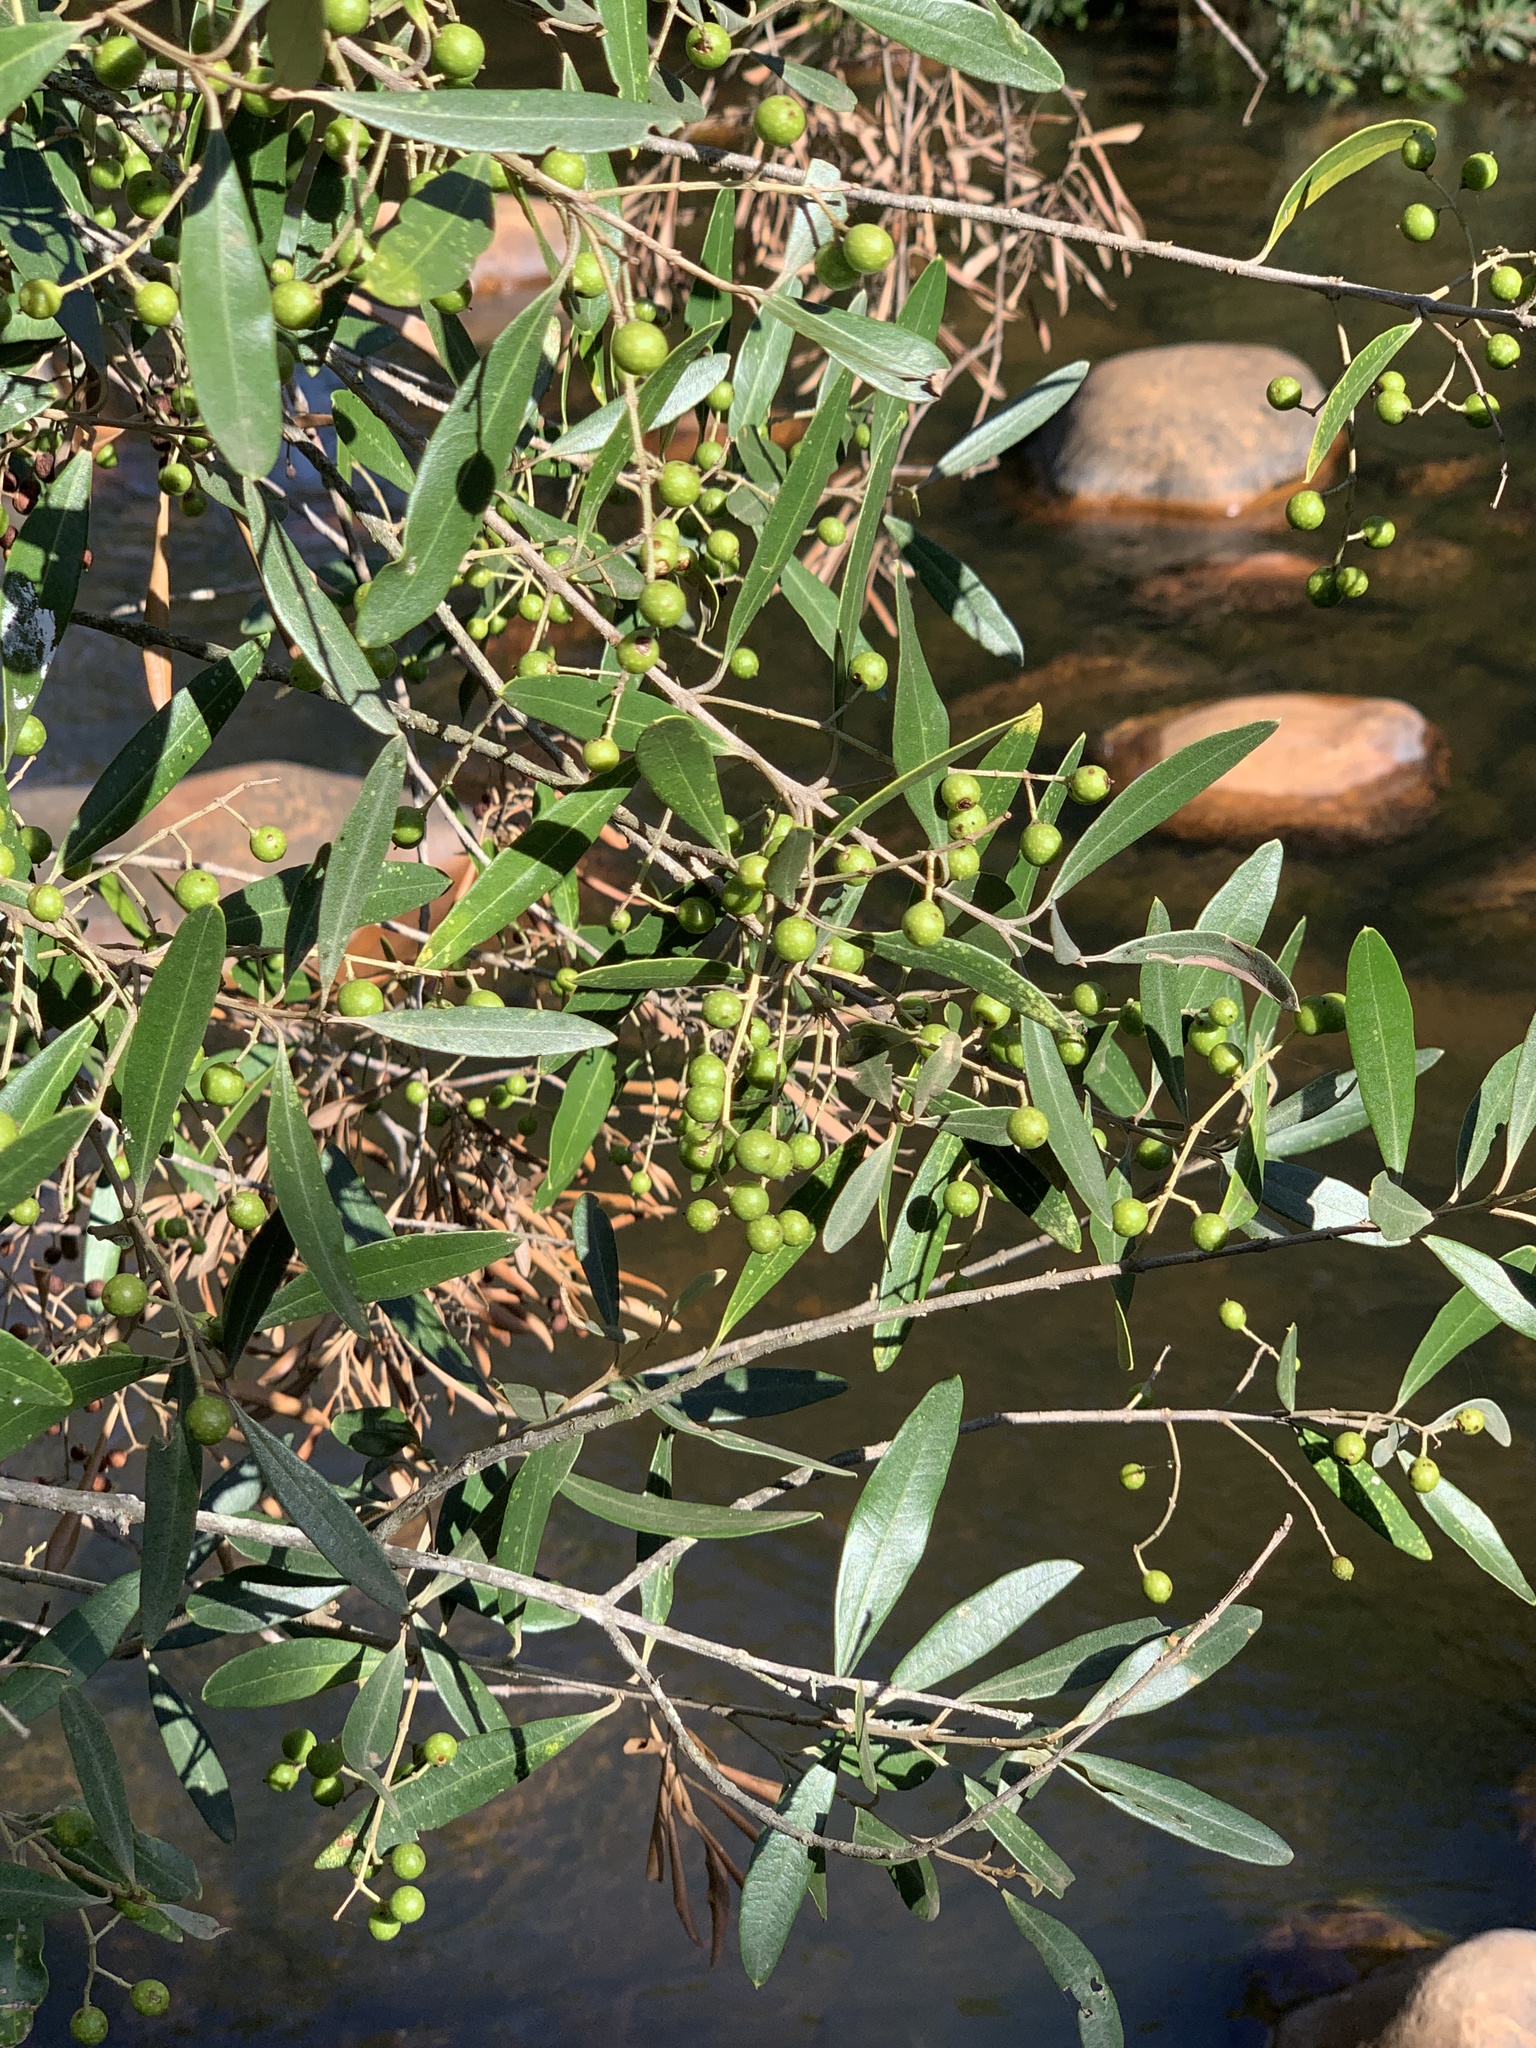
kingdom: Plantae
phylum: Tracheophyta
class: Magnoliopsida
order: Lamiales
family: Oleaceae
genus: Olea
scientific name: Olea europaea
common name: Olive
